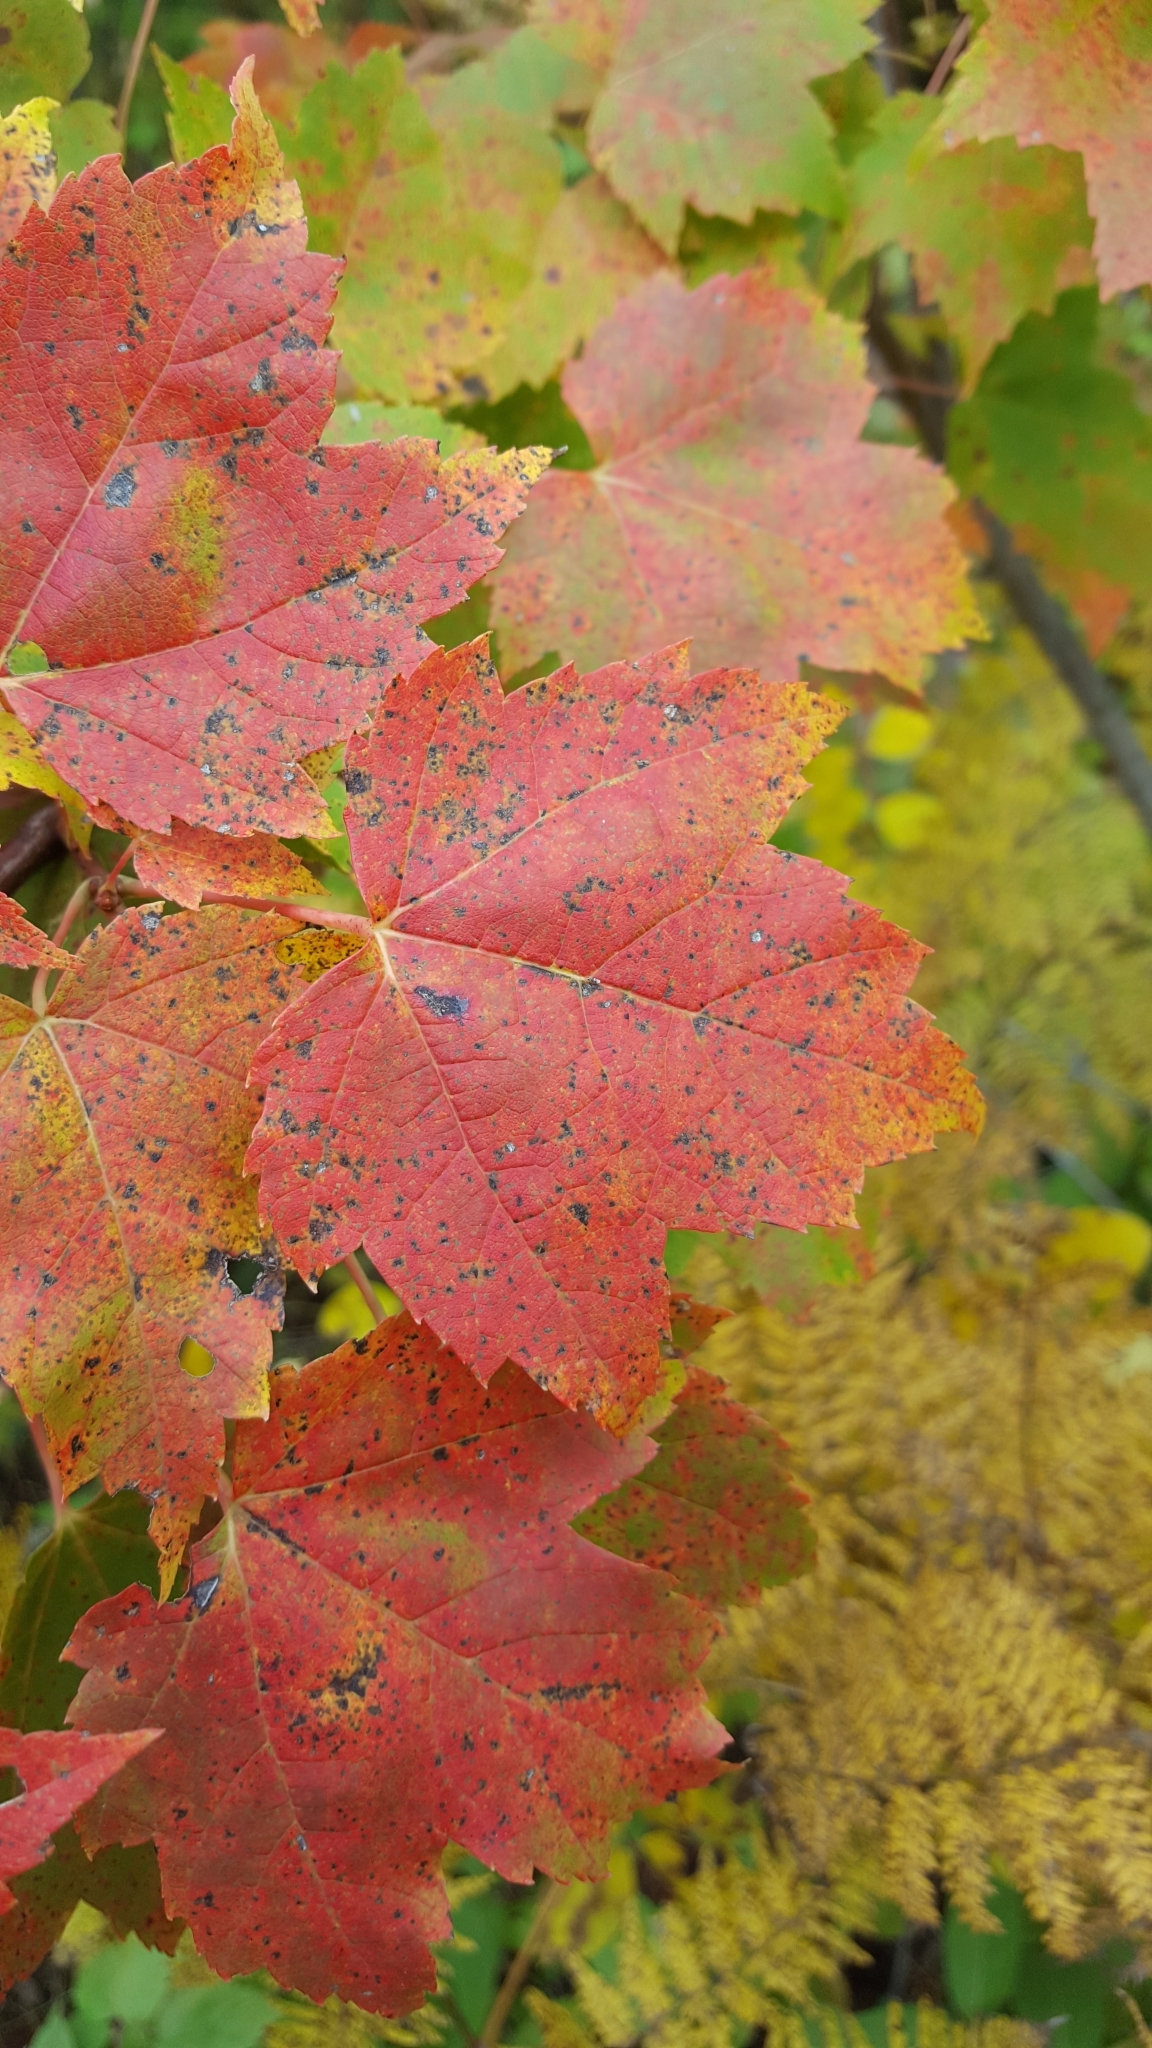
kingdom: Plantae
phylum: Tracheophyta
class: Magnoliopsida
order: Sapindales
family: Sapindaceae
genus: Acer
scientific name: Acer rubrum
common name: Red maple
